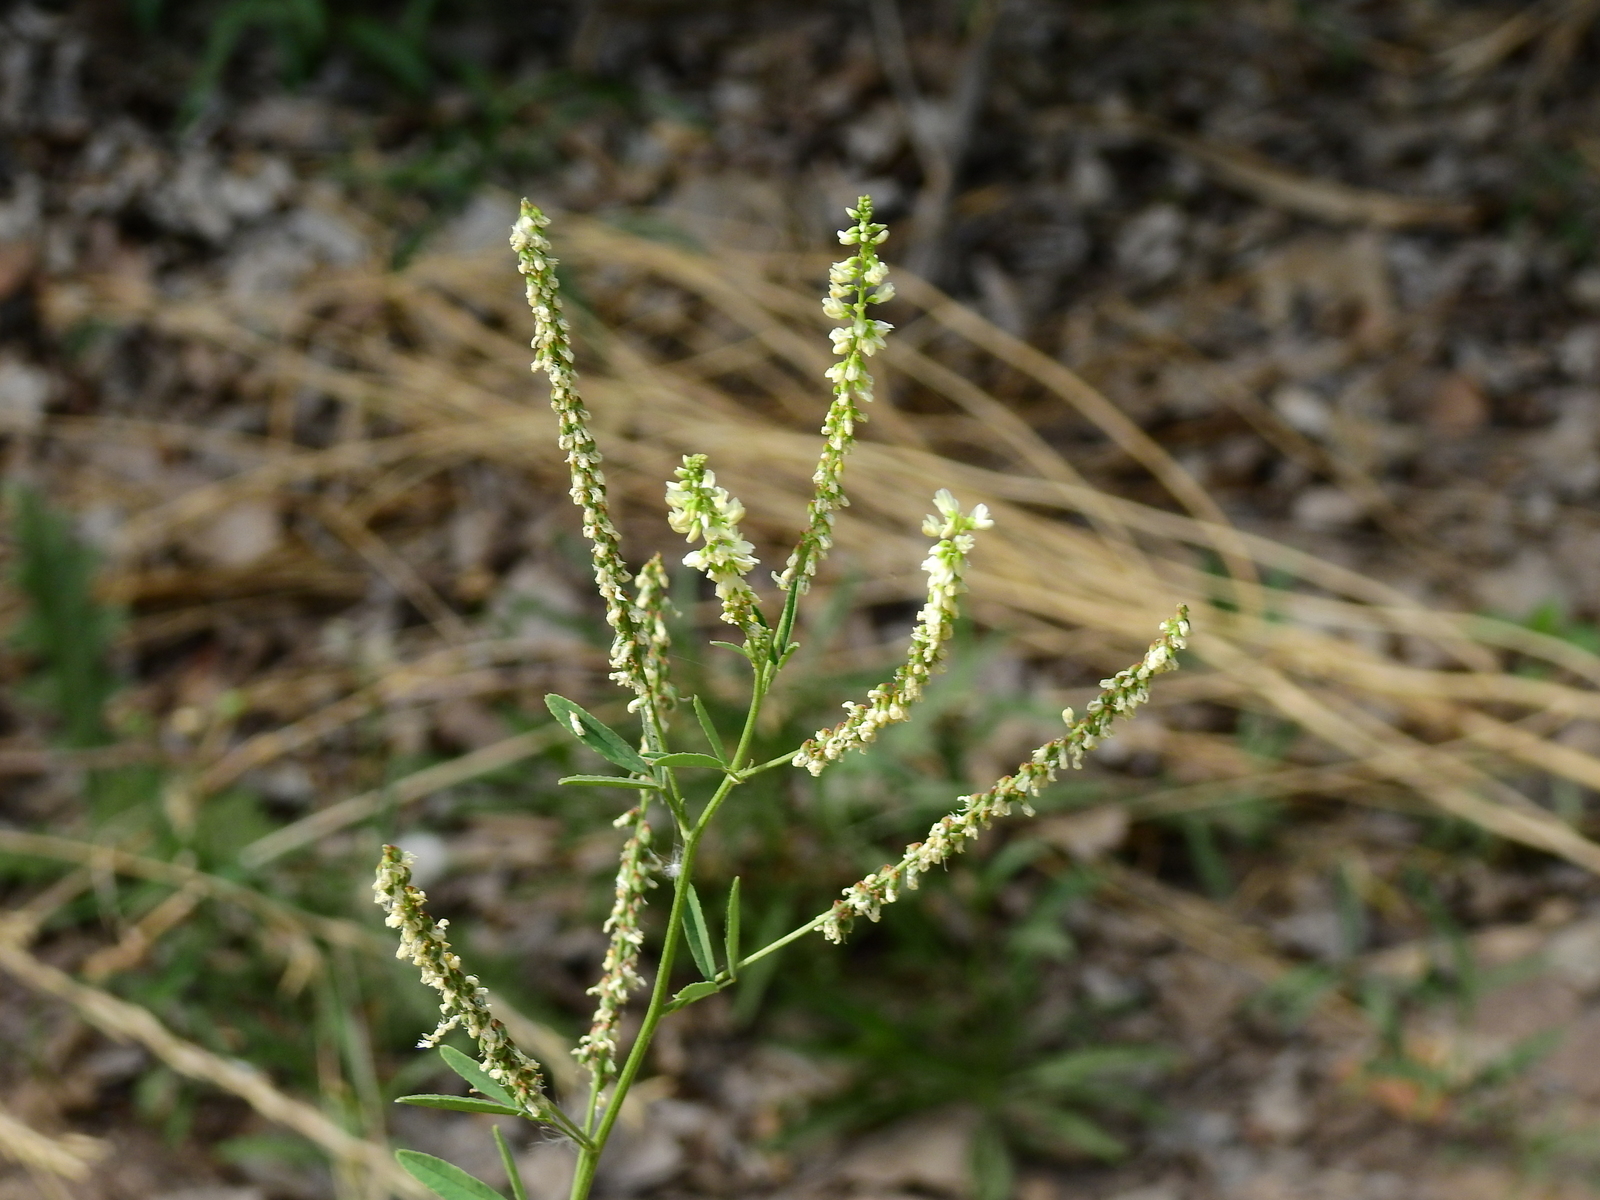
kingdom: Plantae
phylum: Tracheophyta
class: Magnoliopsida
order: Fabales
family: Fabaceae
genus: Melilotus
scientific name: Melilotus albus
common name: White melilot
